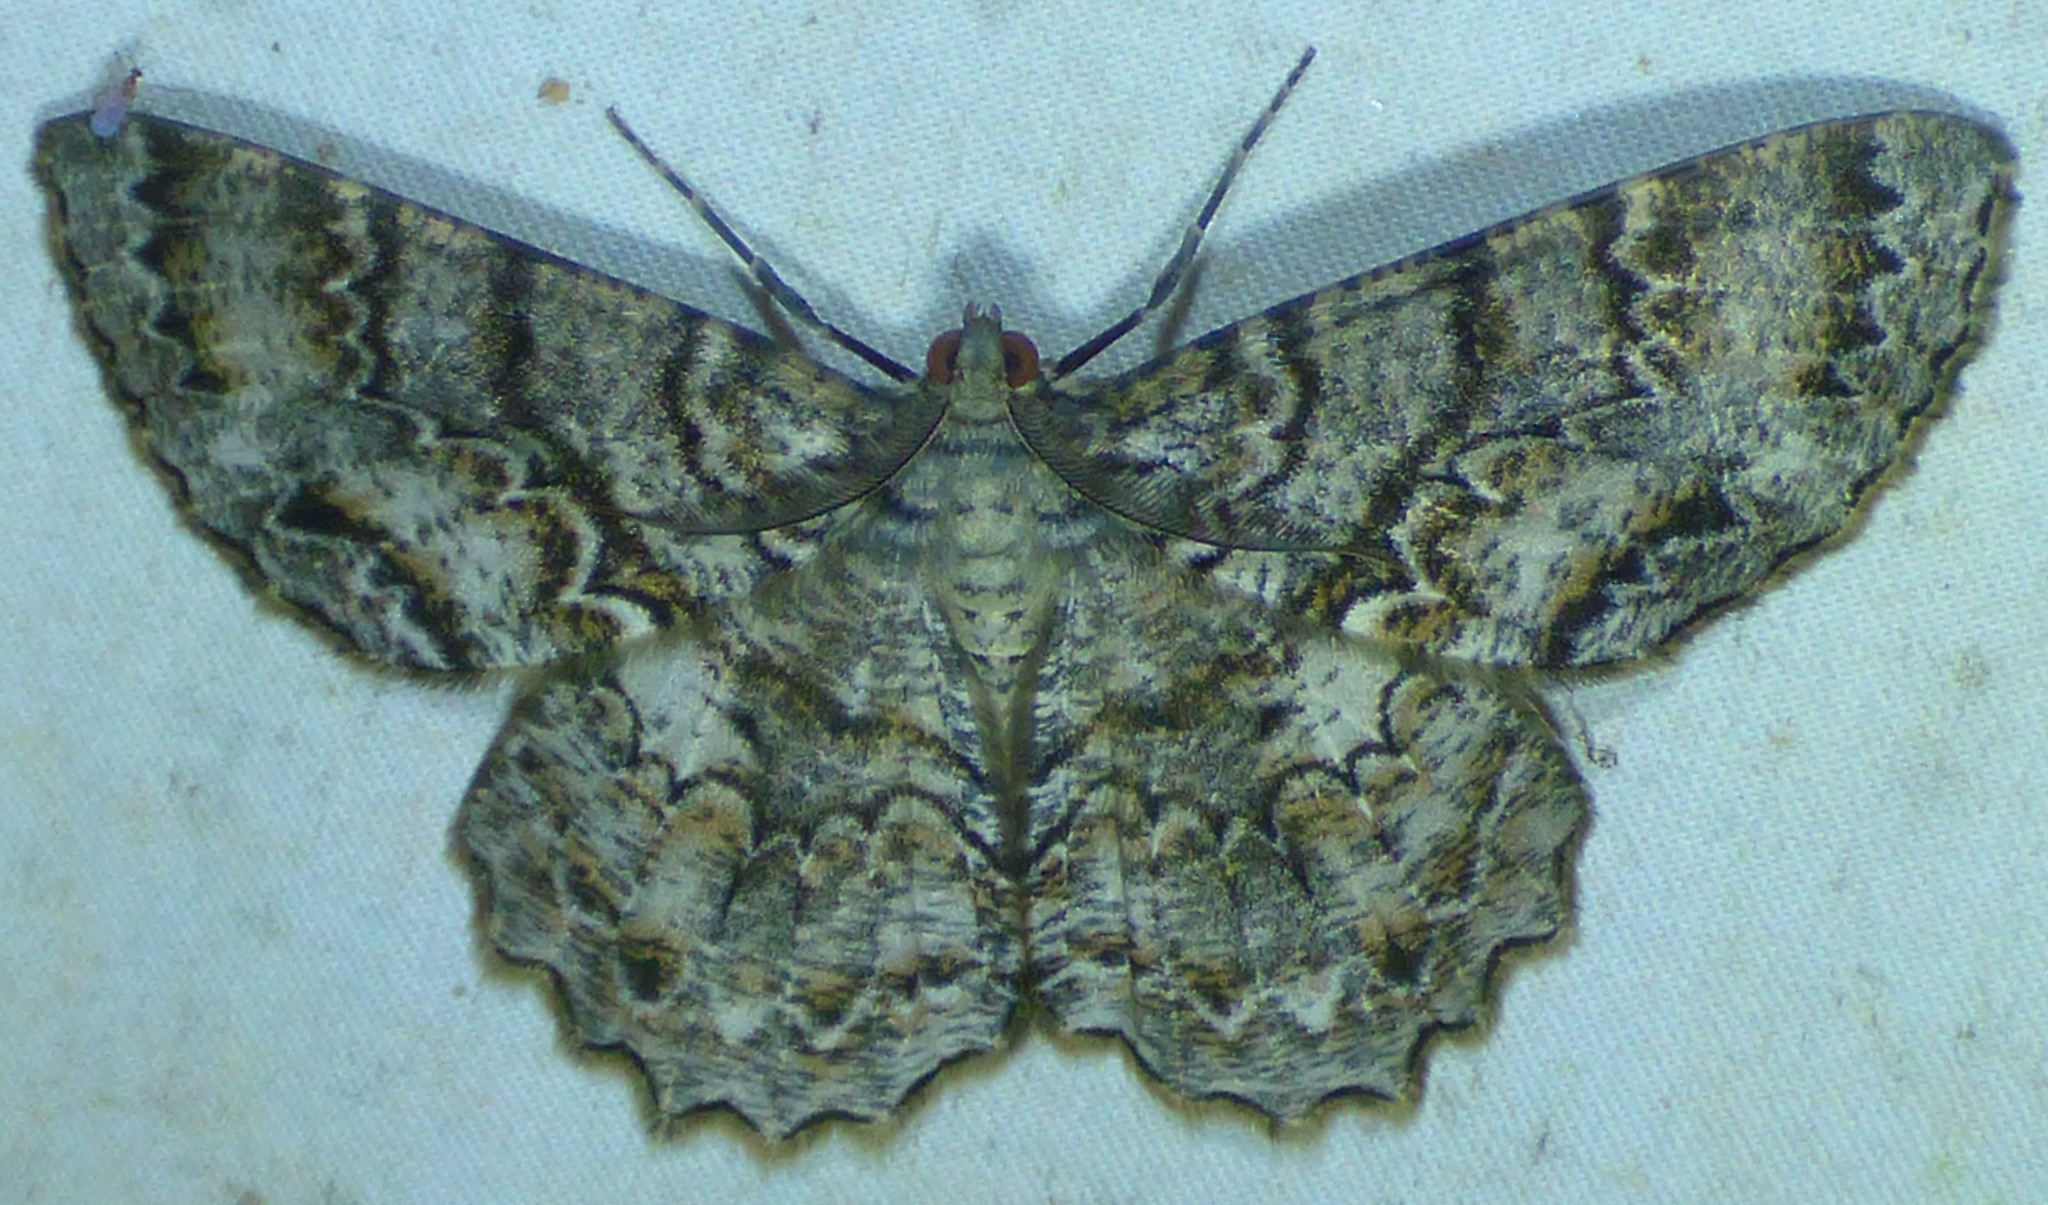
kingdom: Animalia
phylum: Arthropoda
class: Insecta
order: Lepidoptera
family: Geometridae
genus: Epimecis
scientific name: Epimecis hortaria
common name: Tulip-tree beauty
